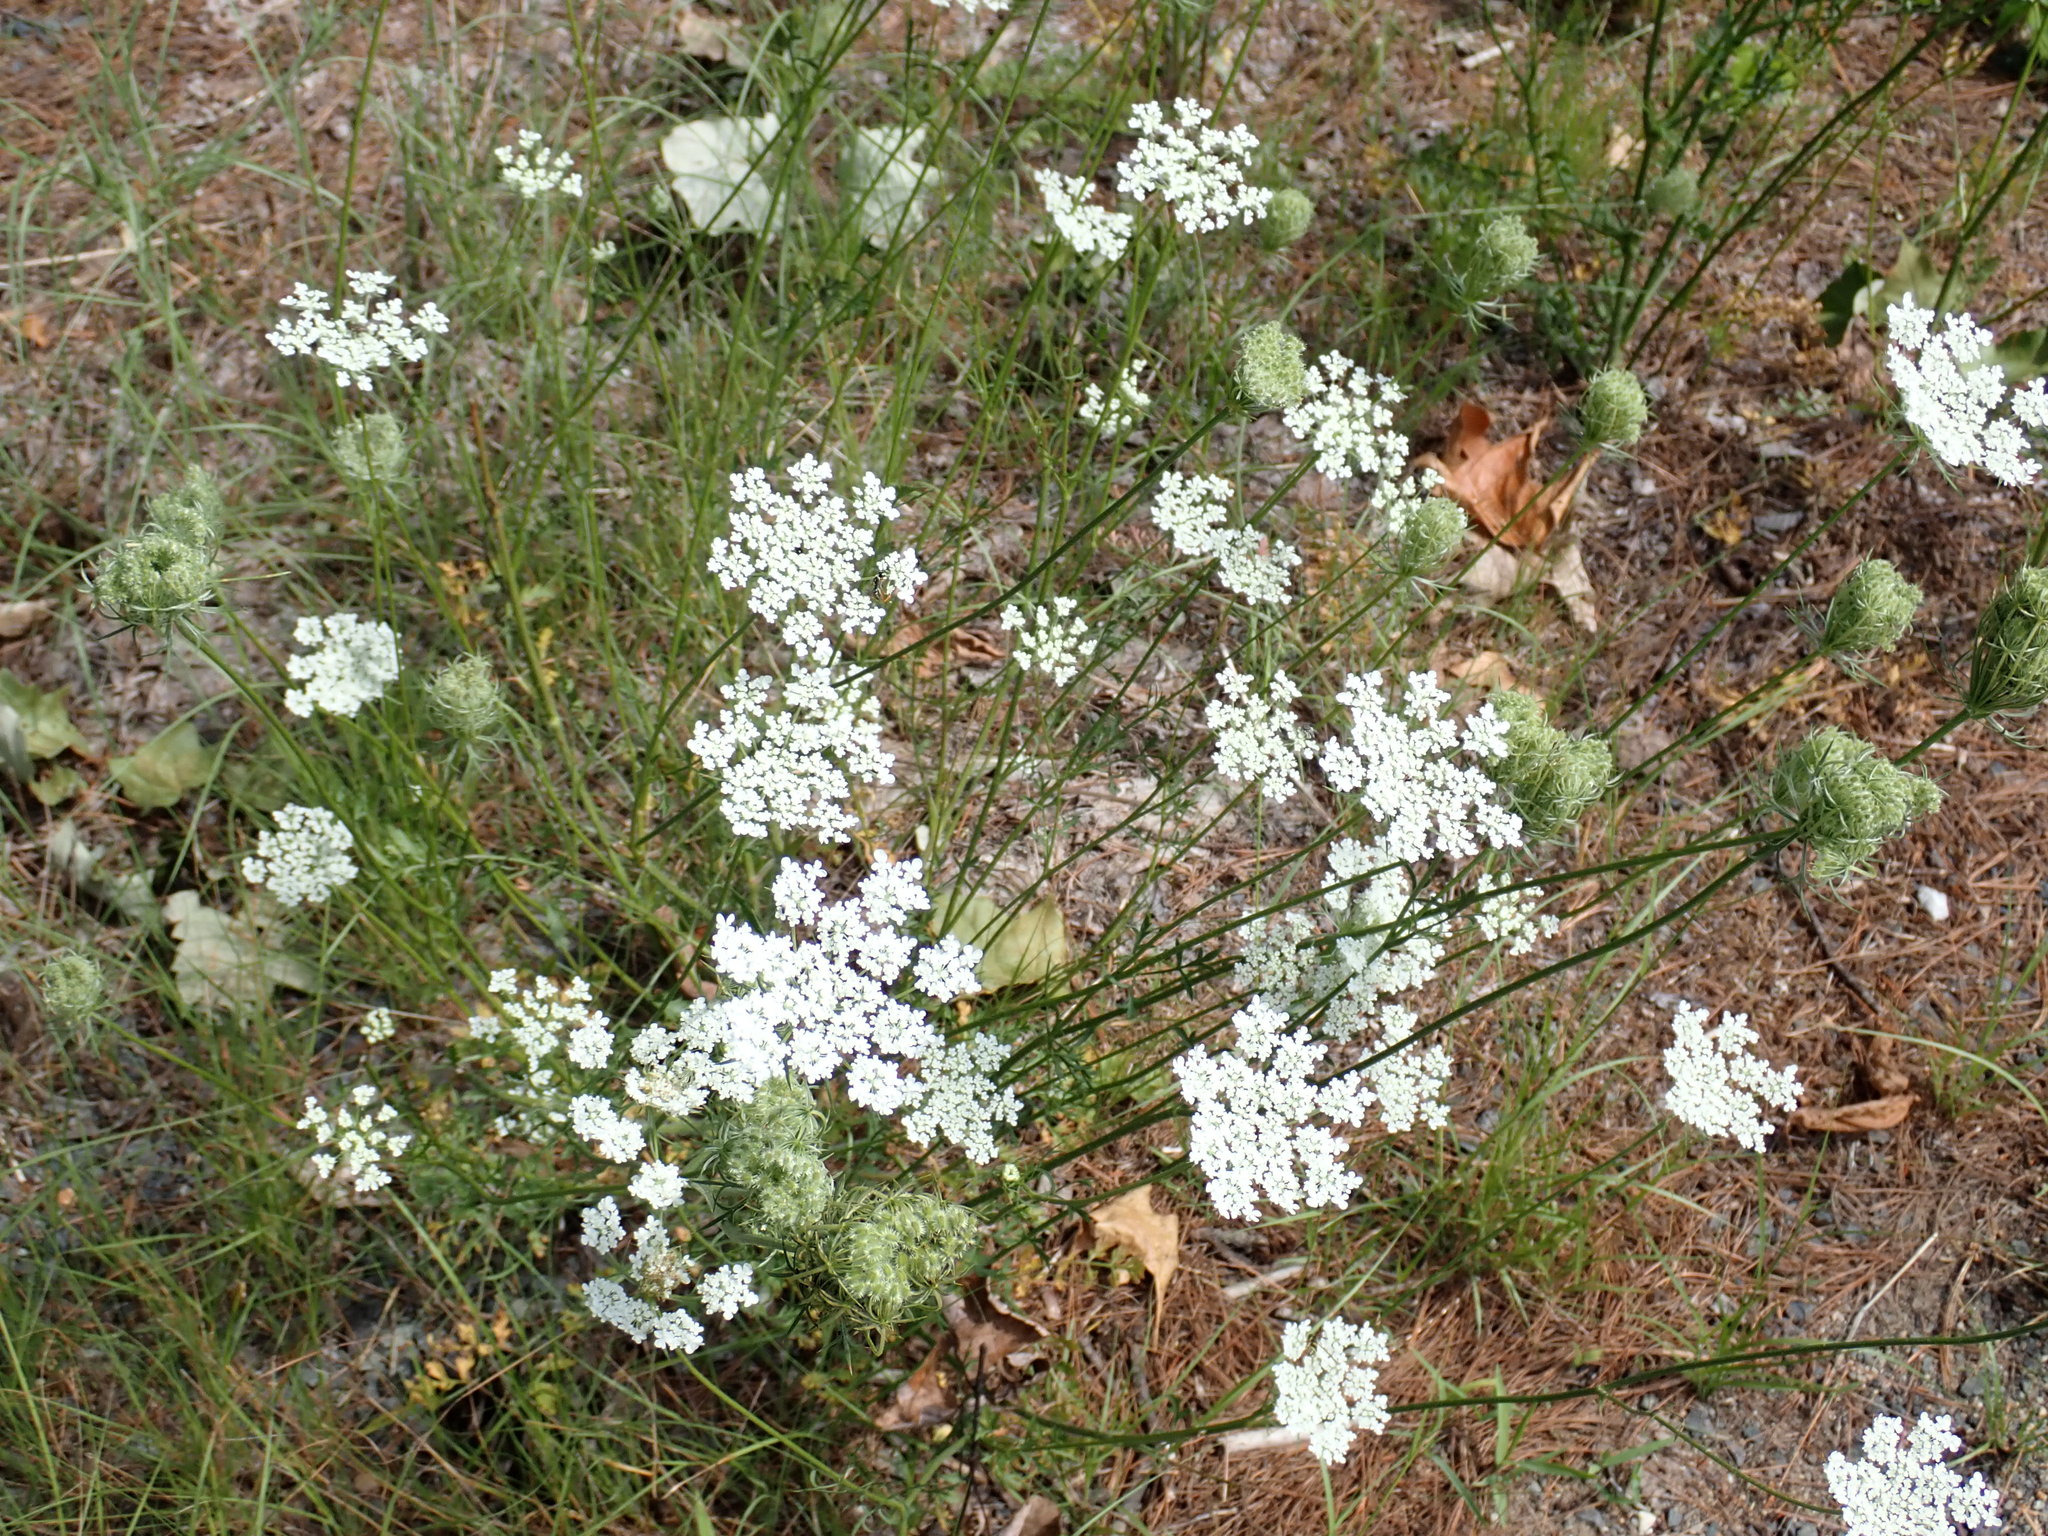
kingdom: Plantae
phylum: Tracheophyta
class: Magnoliopsida
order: Apiales
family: Apiaceae
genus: Daucus
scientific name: Daucus carota
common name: Wild carrot
